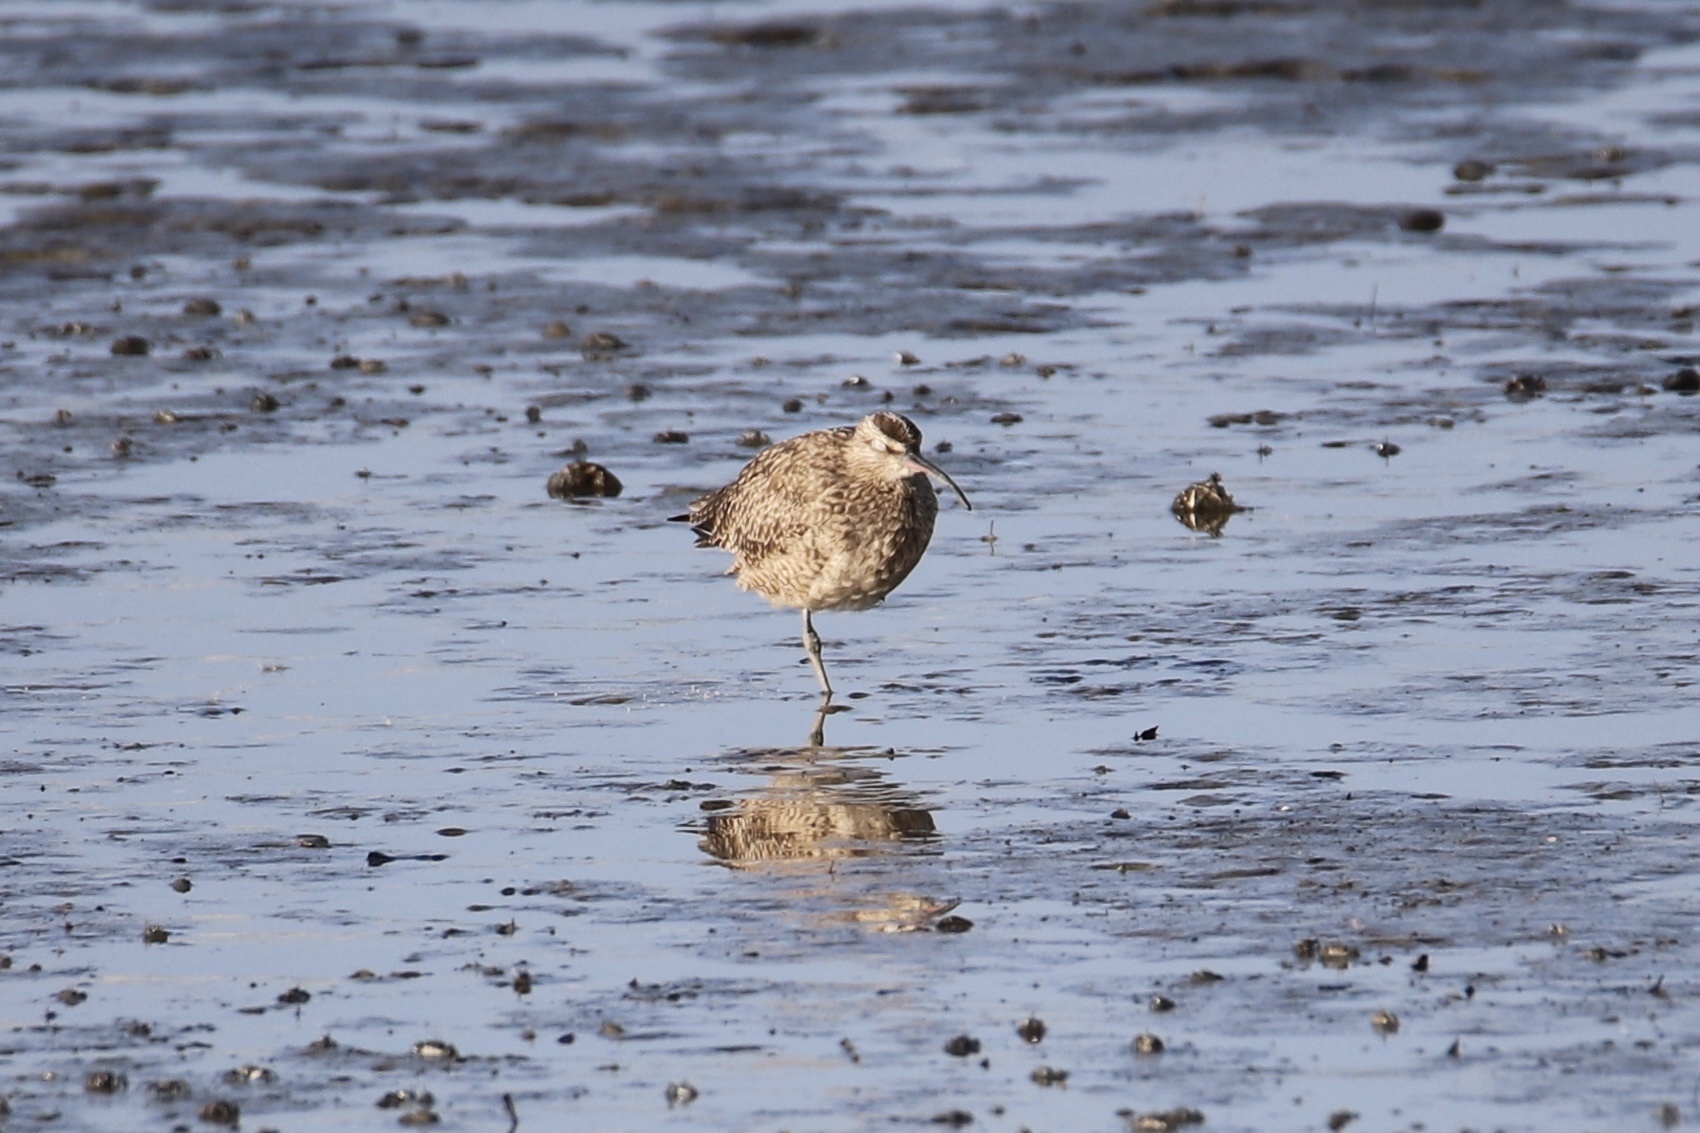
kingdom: Animalia
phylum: Chordata
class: Aves
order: Charadriiformes
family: Scolopacidae
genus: Numenius
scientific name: Numenius phaeopus
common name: Whimbrel
